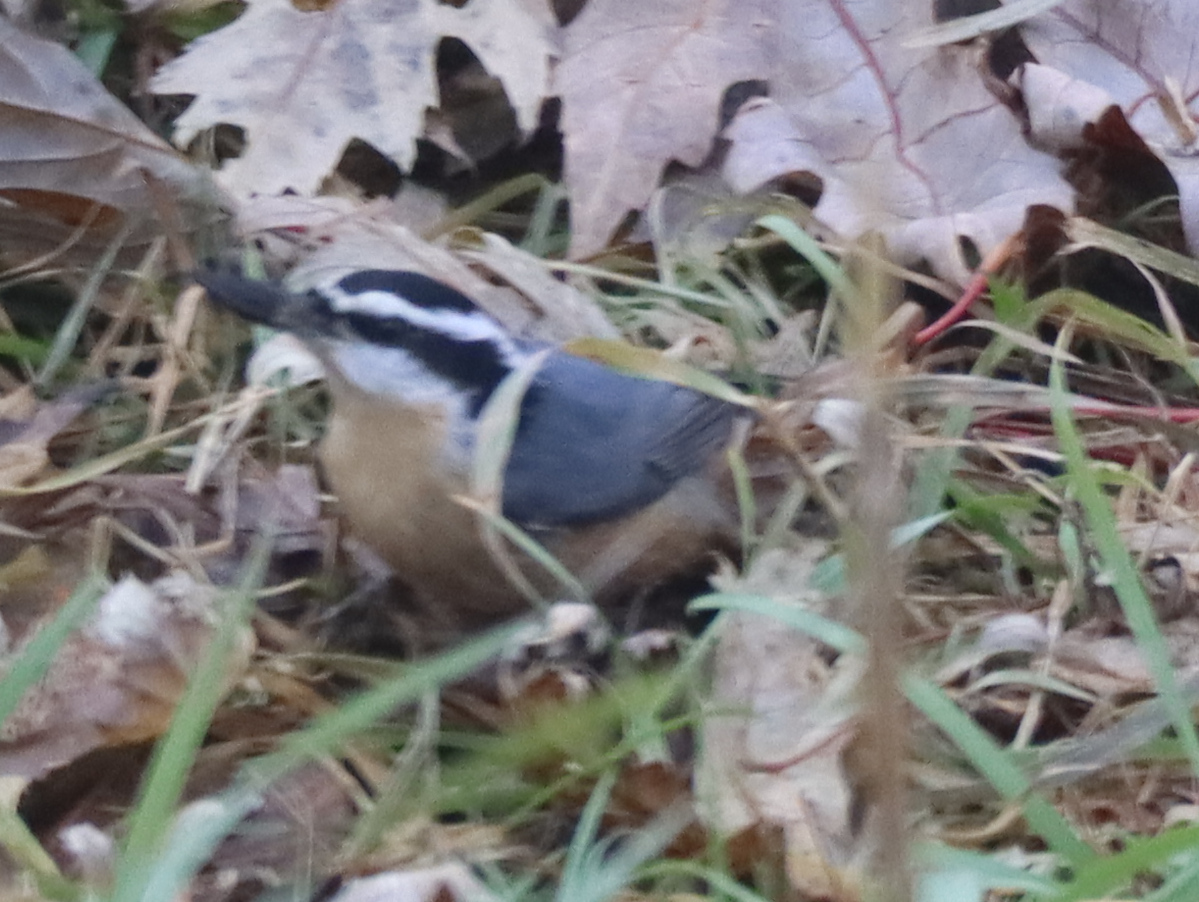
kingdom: Animalia
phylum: Chordata
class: Aves
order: Passeriformes
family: Sittidae
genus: Sitta
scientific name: Sitta canadensis
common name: Red-breasted nuthatch
